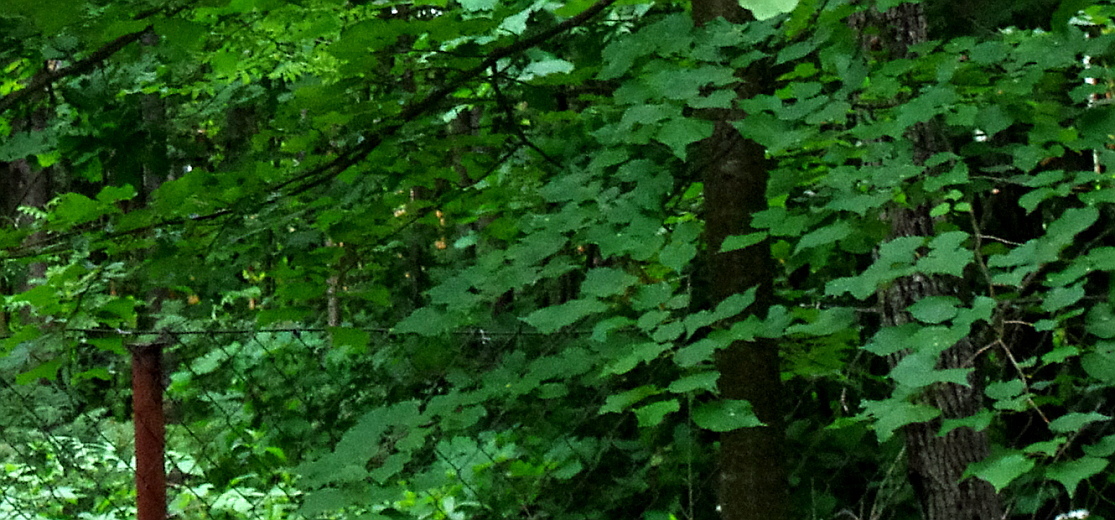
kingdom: Plantae
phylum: Tracheophyta
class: Magnoliopsida
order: Malvales
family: Malvaceae
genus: Tilia
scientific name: Tilia cordata
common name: Small-leaved lime
